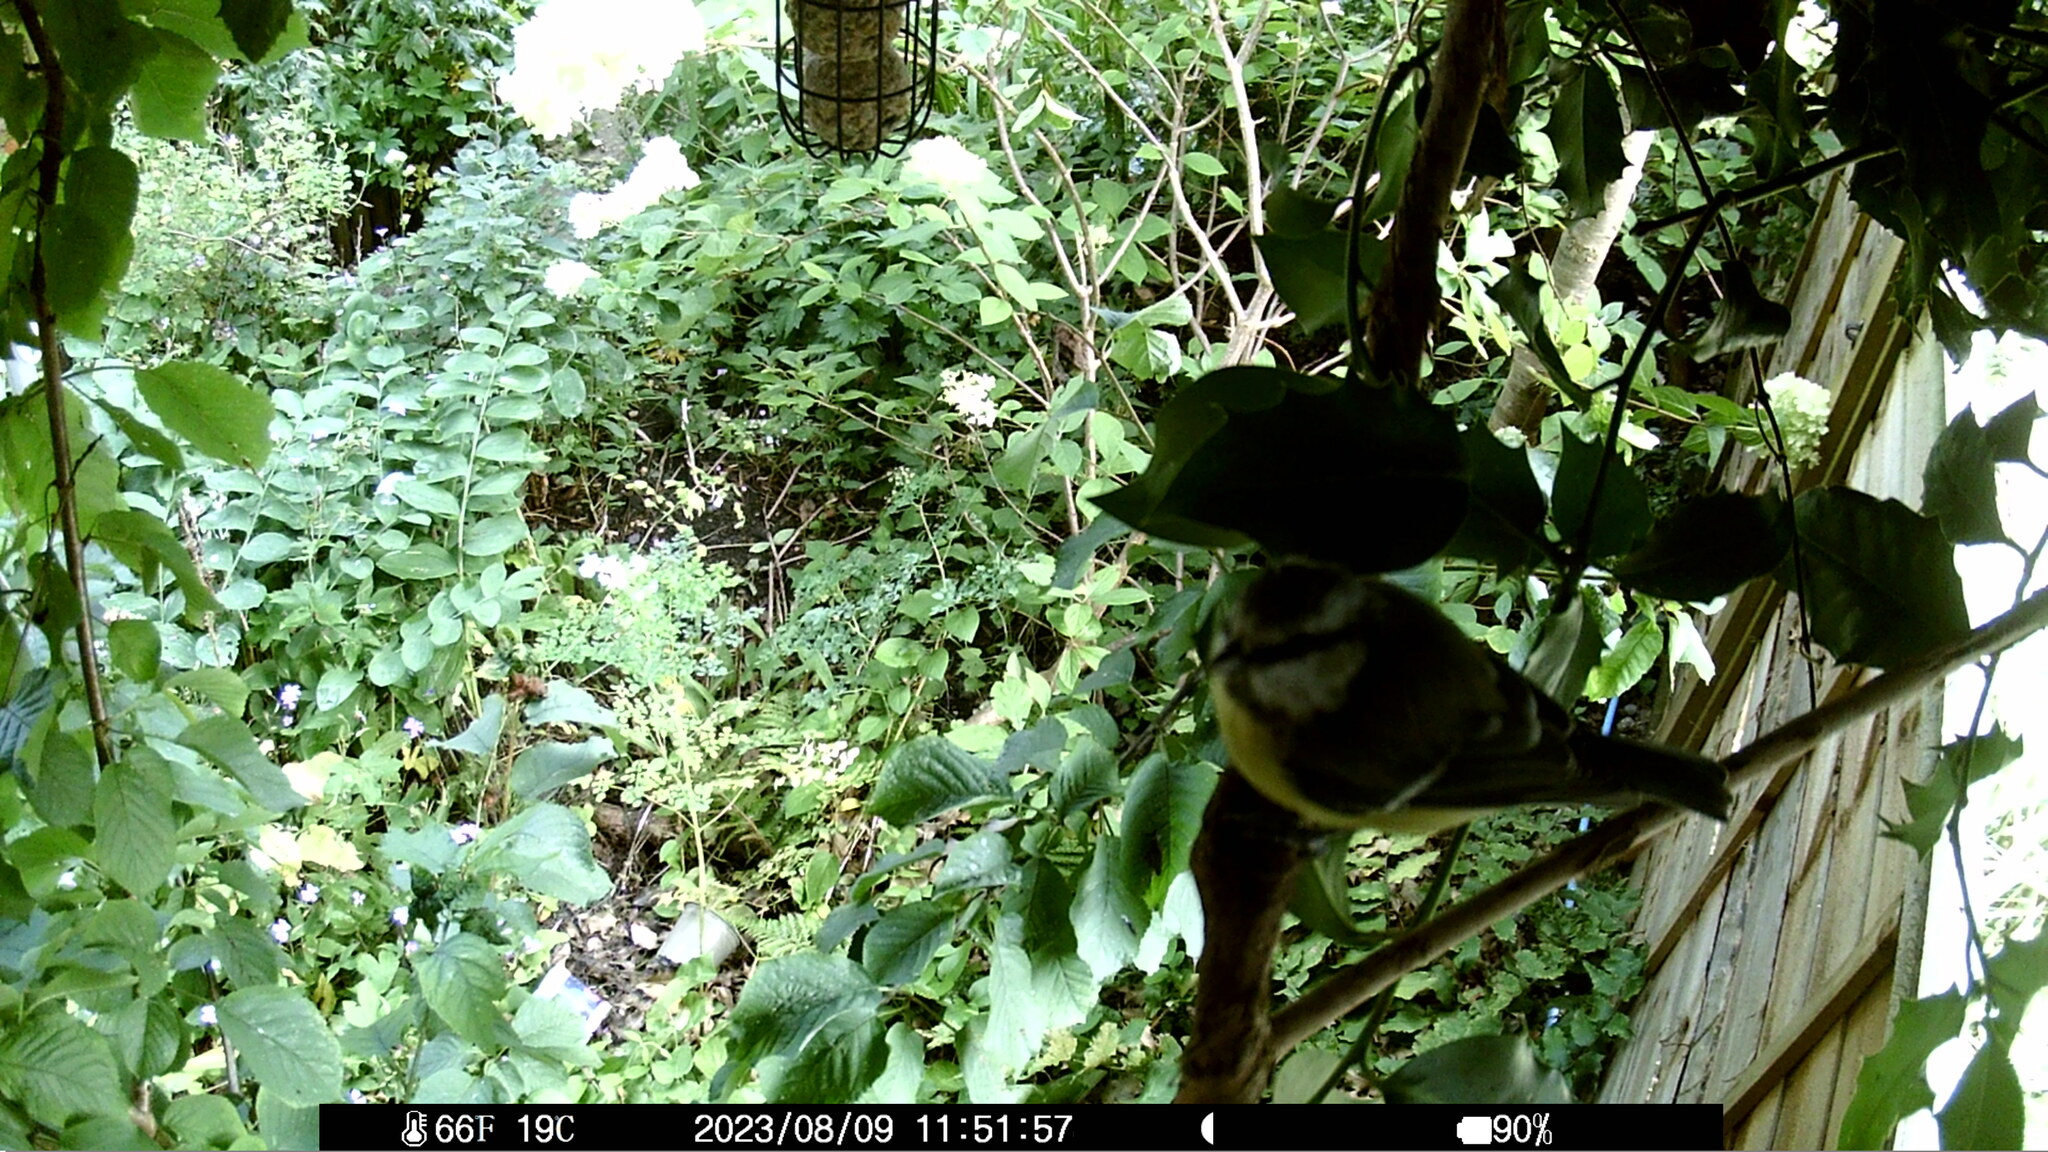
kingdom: Animalia
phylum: Chordata
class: Aves
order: Passeriformes
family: Paridae
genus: Cyanistes
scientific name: Cyanistes caeruleus
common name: Eurasian blue tit
